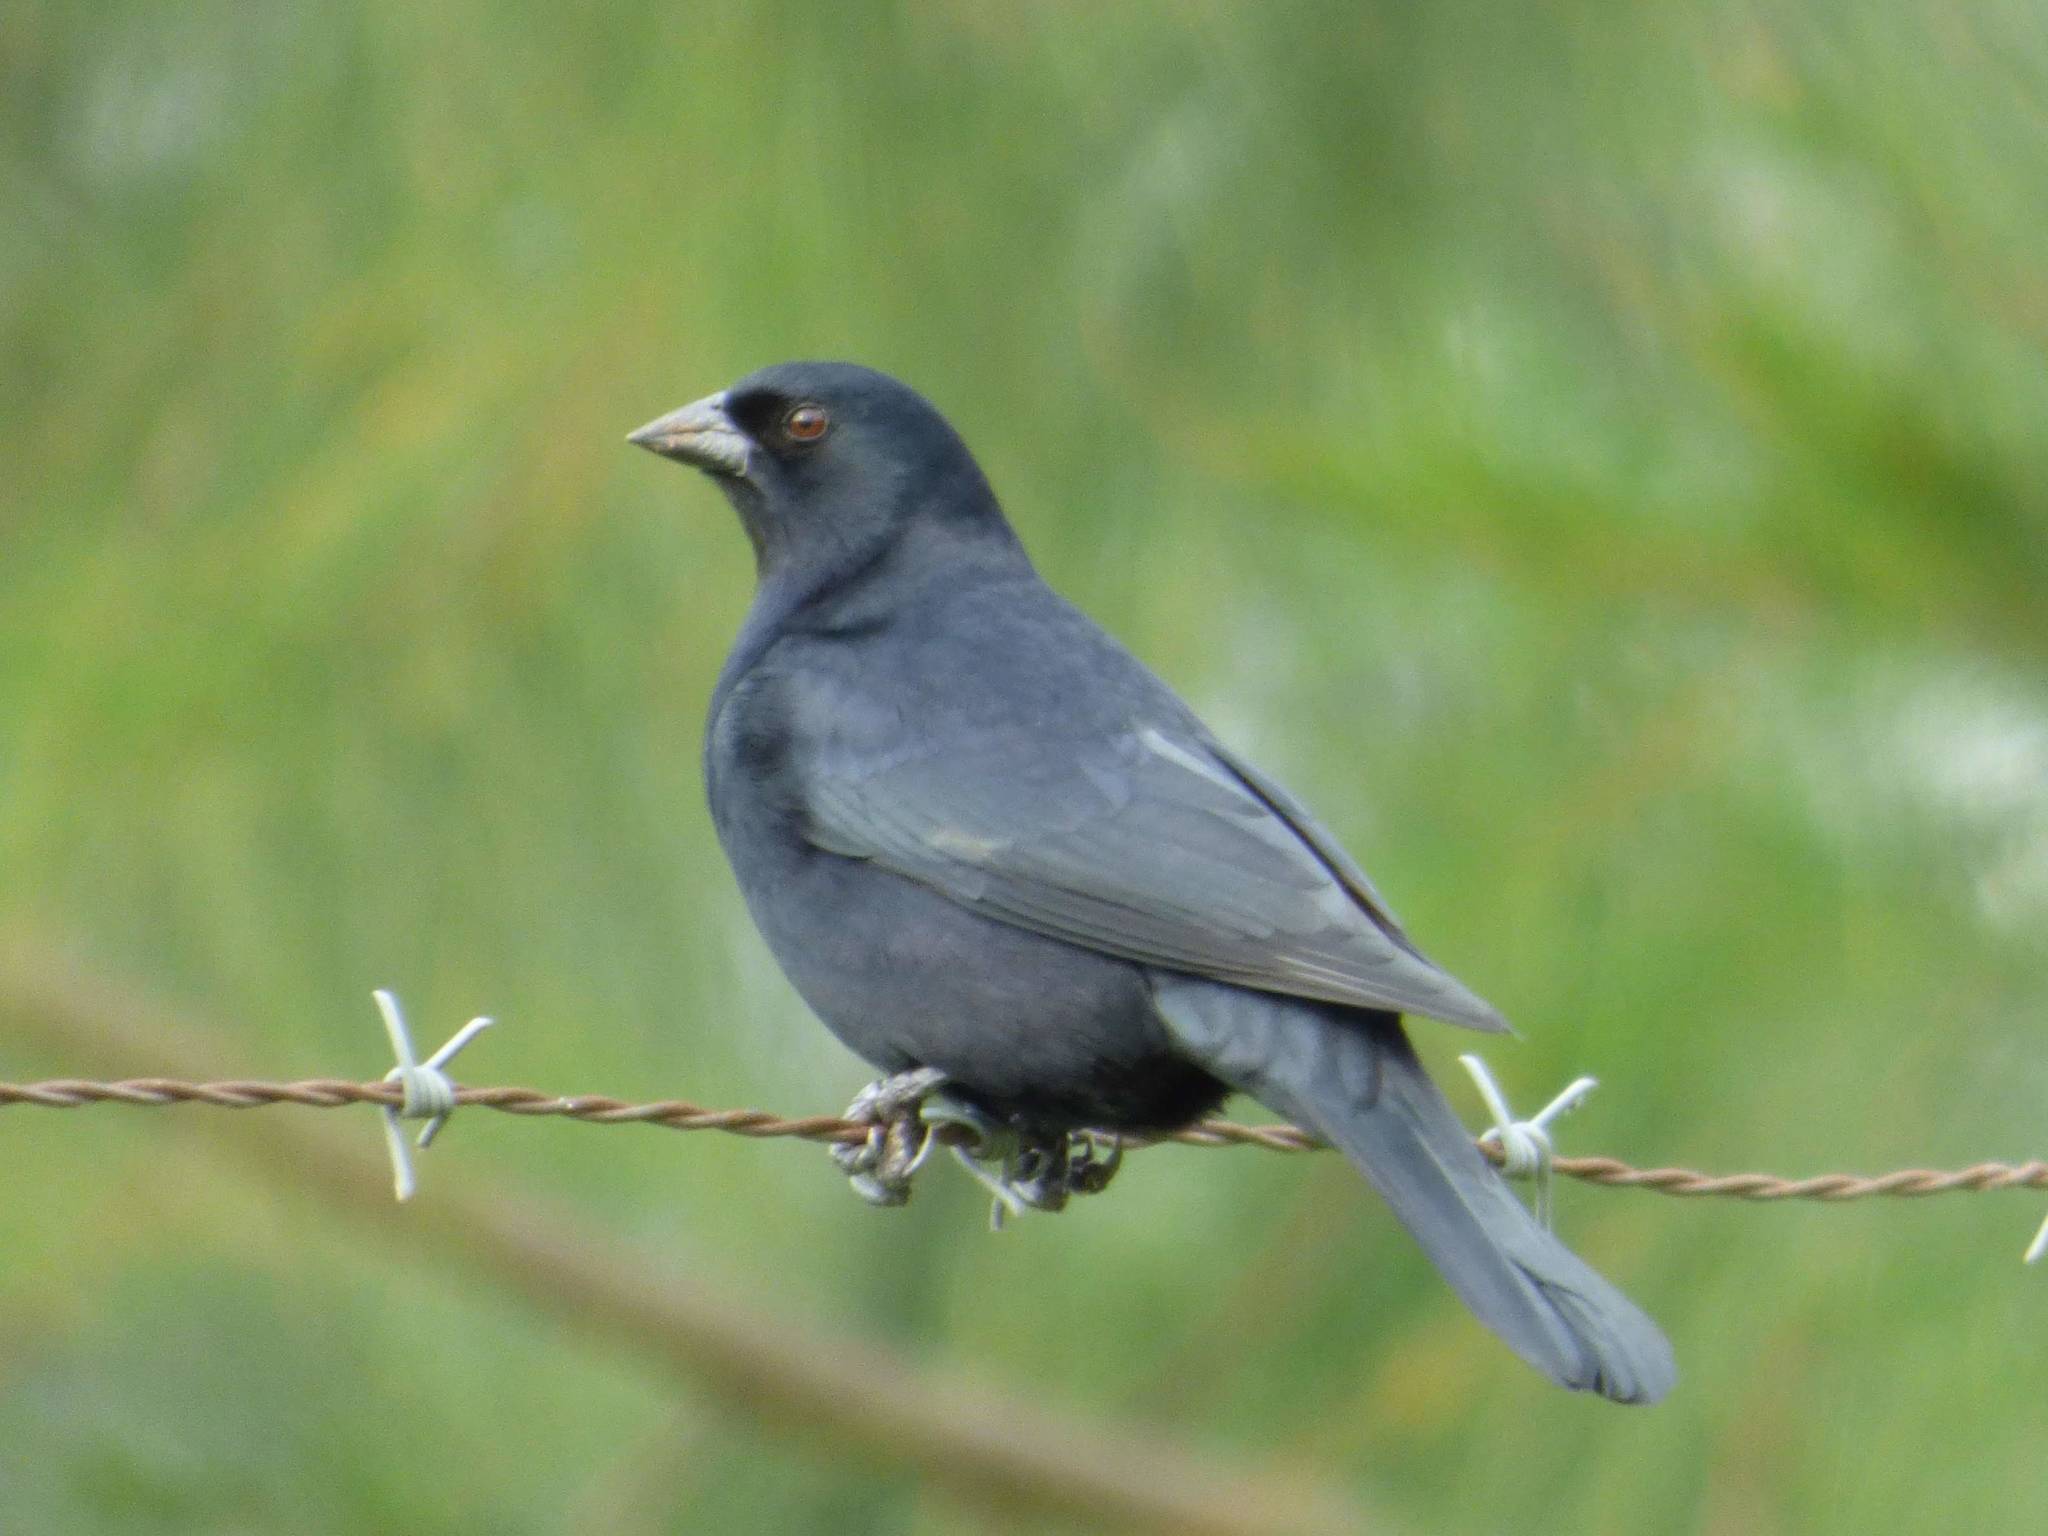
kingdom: Animalia
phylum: Chordata
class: Aves
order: Passeriformes
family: Icteridae
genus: Molothrus
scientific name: Molothrus rufoaxillaris
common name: Screaming cowbird
